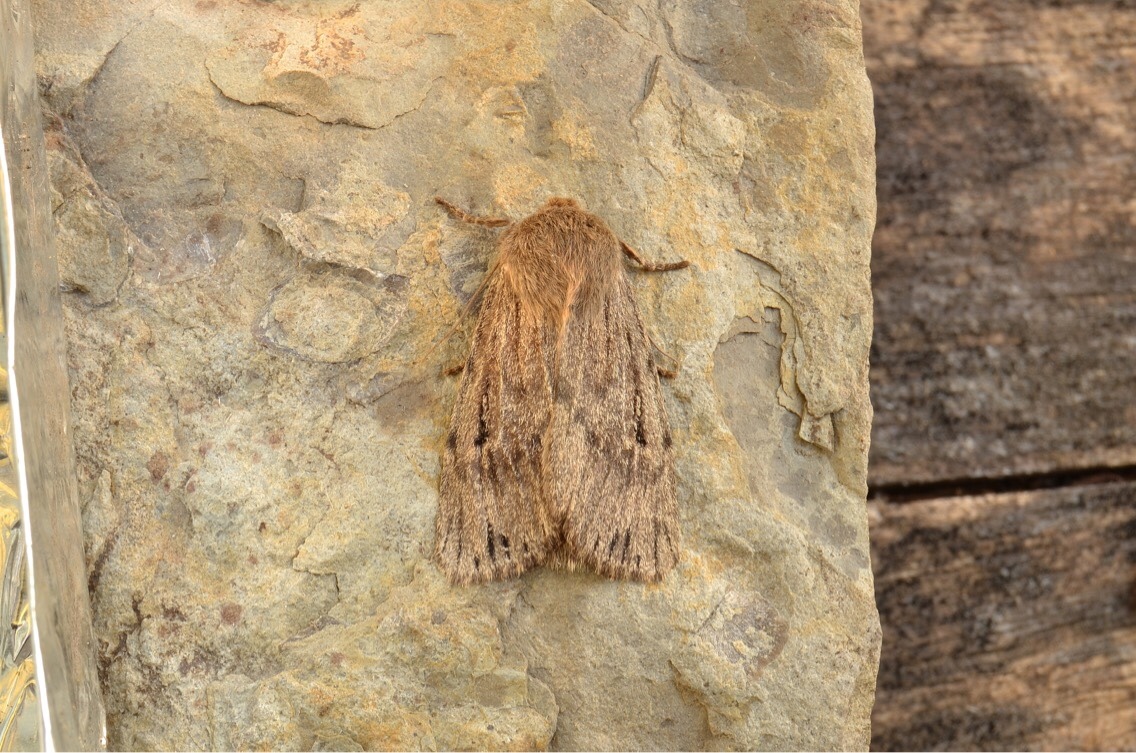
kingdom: Animalia
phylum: Arthropoda
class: Insecta
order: Lepidoptera
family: Noctuidae
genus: Ufeus
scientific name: Ufeus satyricus
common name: Brown satyr moth
